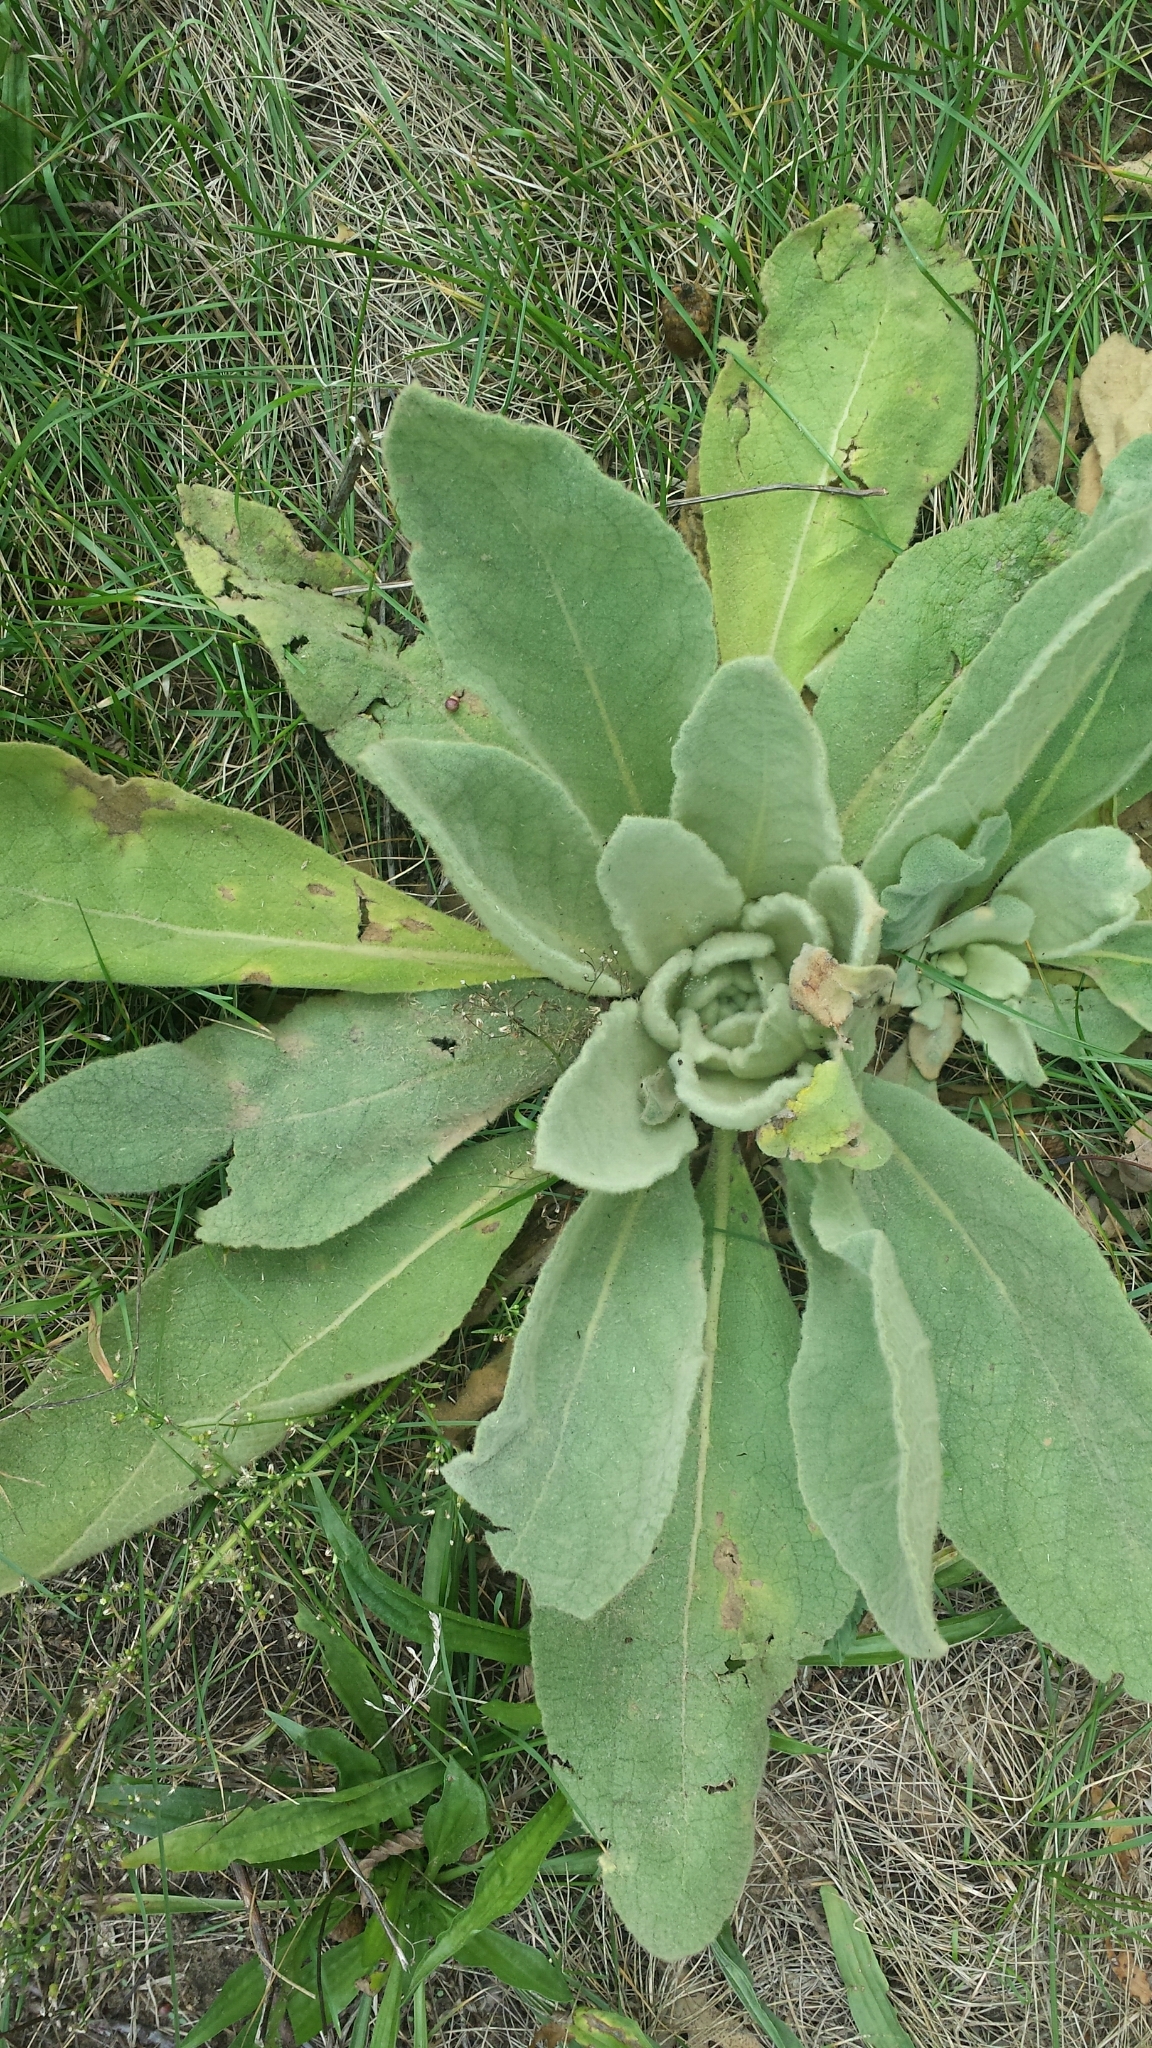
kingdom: Plantae
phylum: Tracheophyta
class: Magnoliopsida
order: Lamiales
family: Scrophulariaceae
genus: Verbascum
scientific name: Verbascum thapsus
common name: Common mullein
